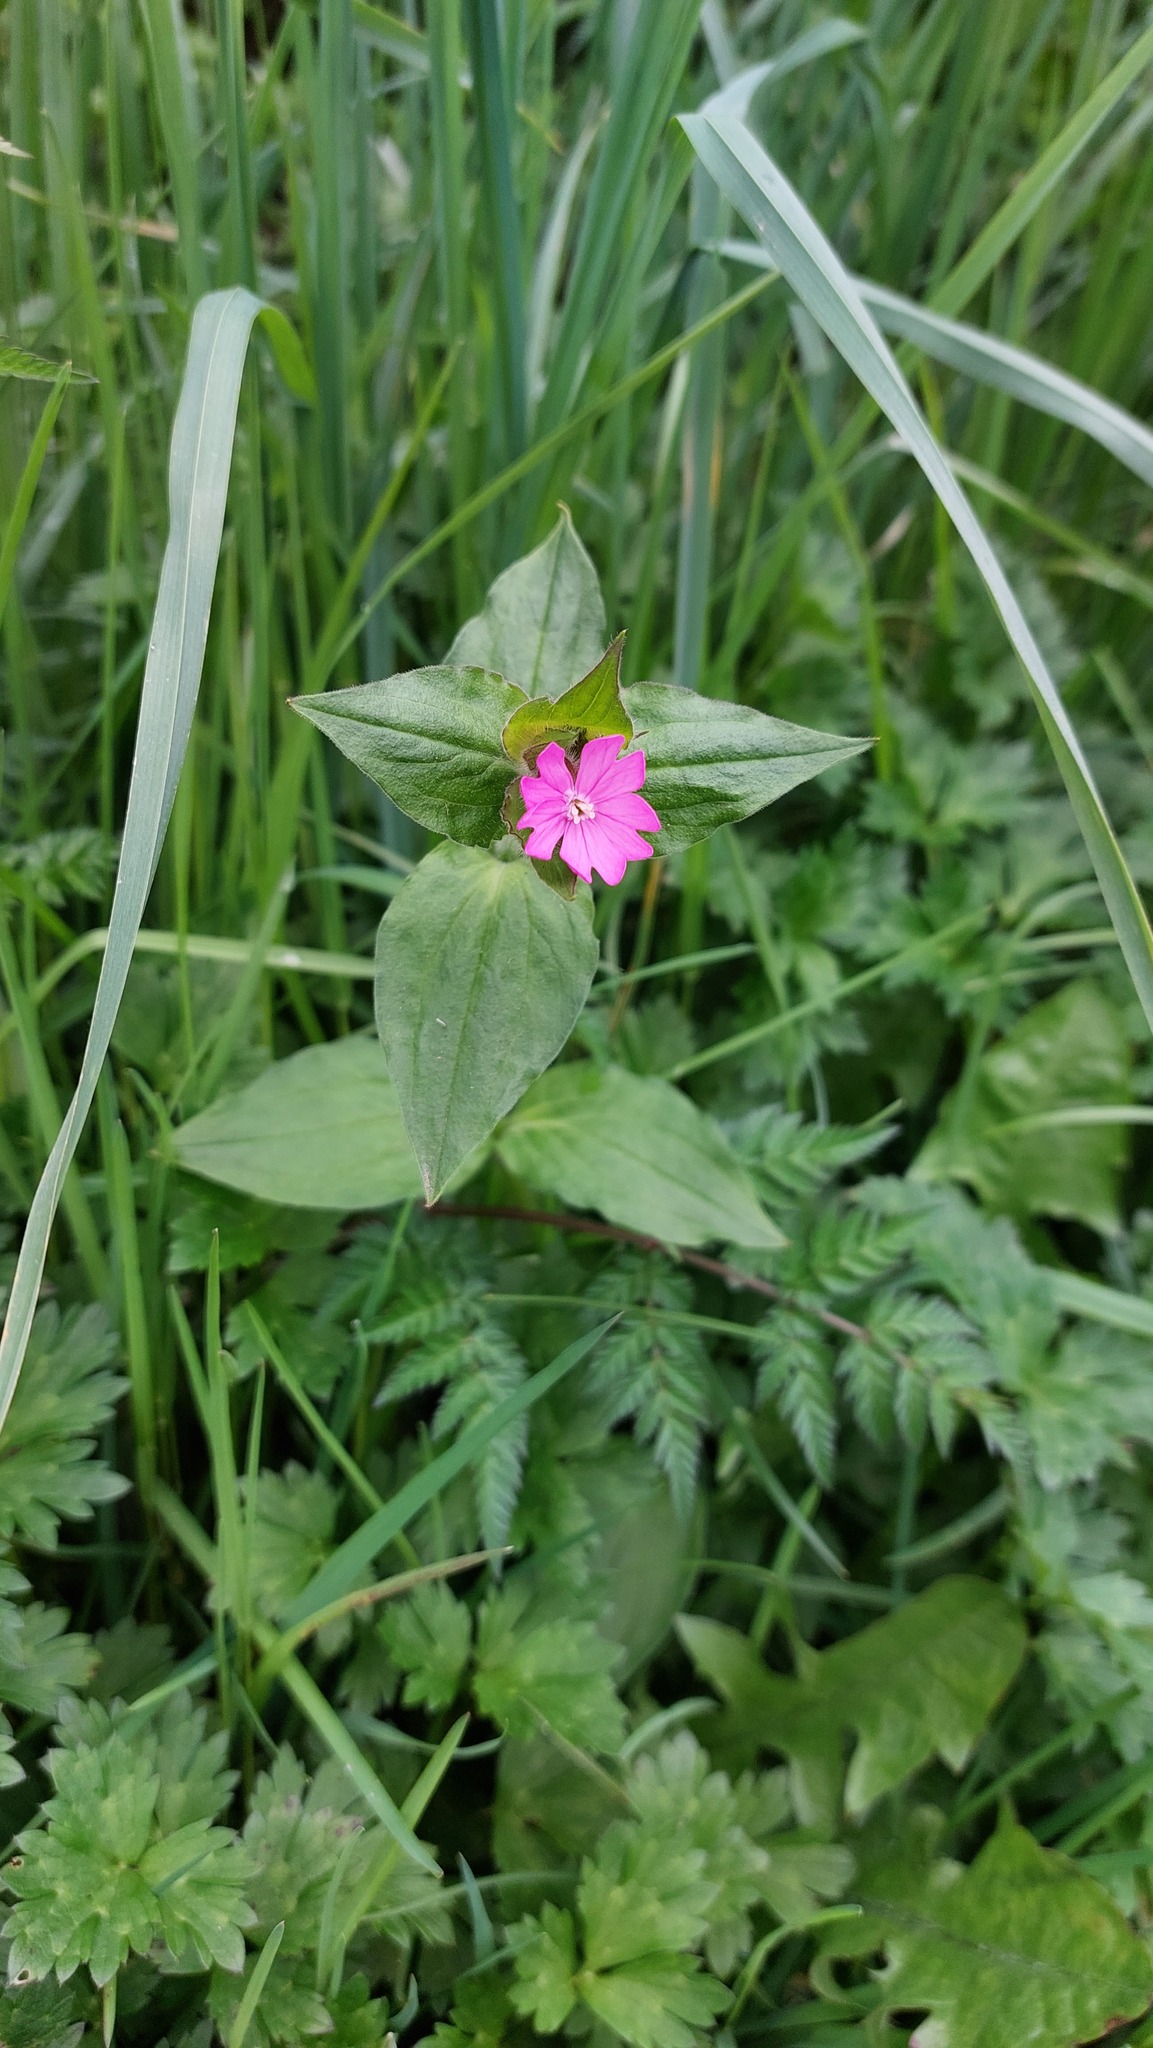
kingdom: Plantae
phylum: Tracheophyta
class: Magnoliopsida
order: Caryophyllales
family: Caryophyllaceae
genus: Silene
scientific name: Silene dioica
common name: Red campion
